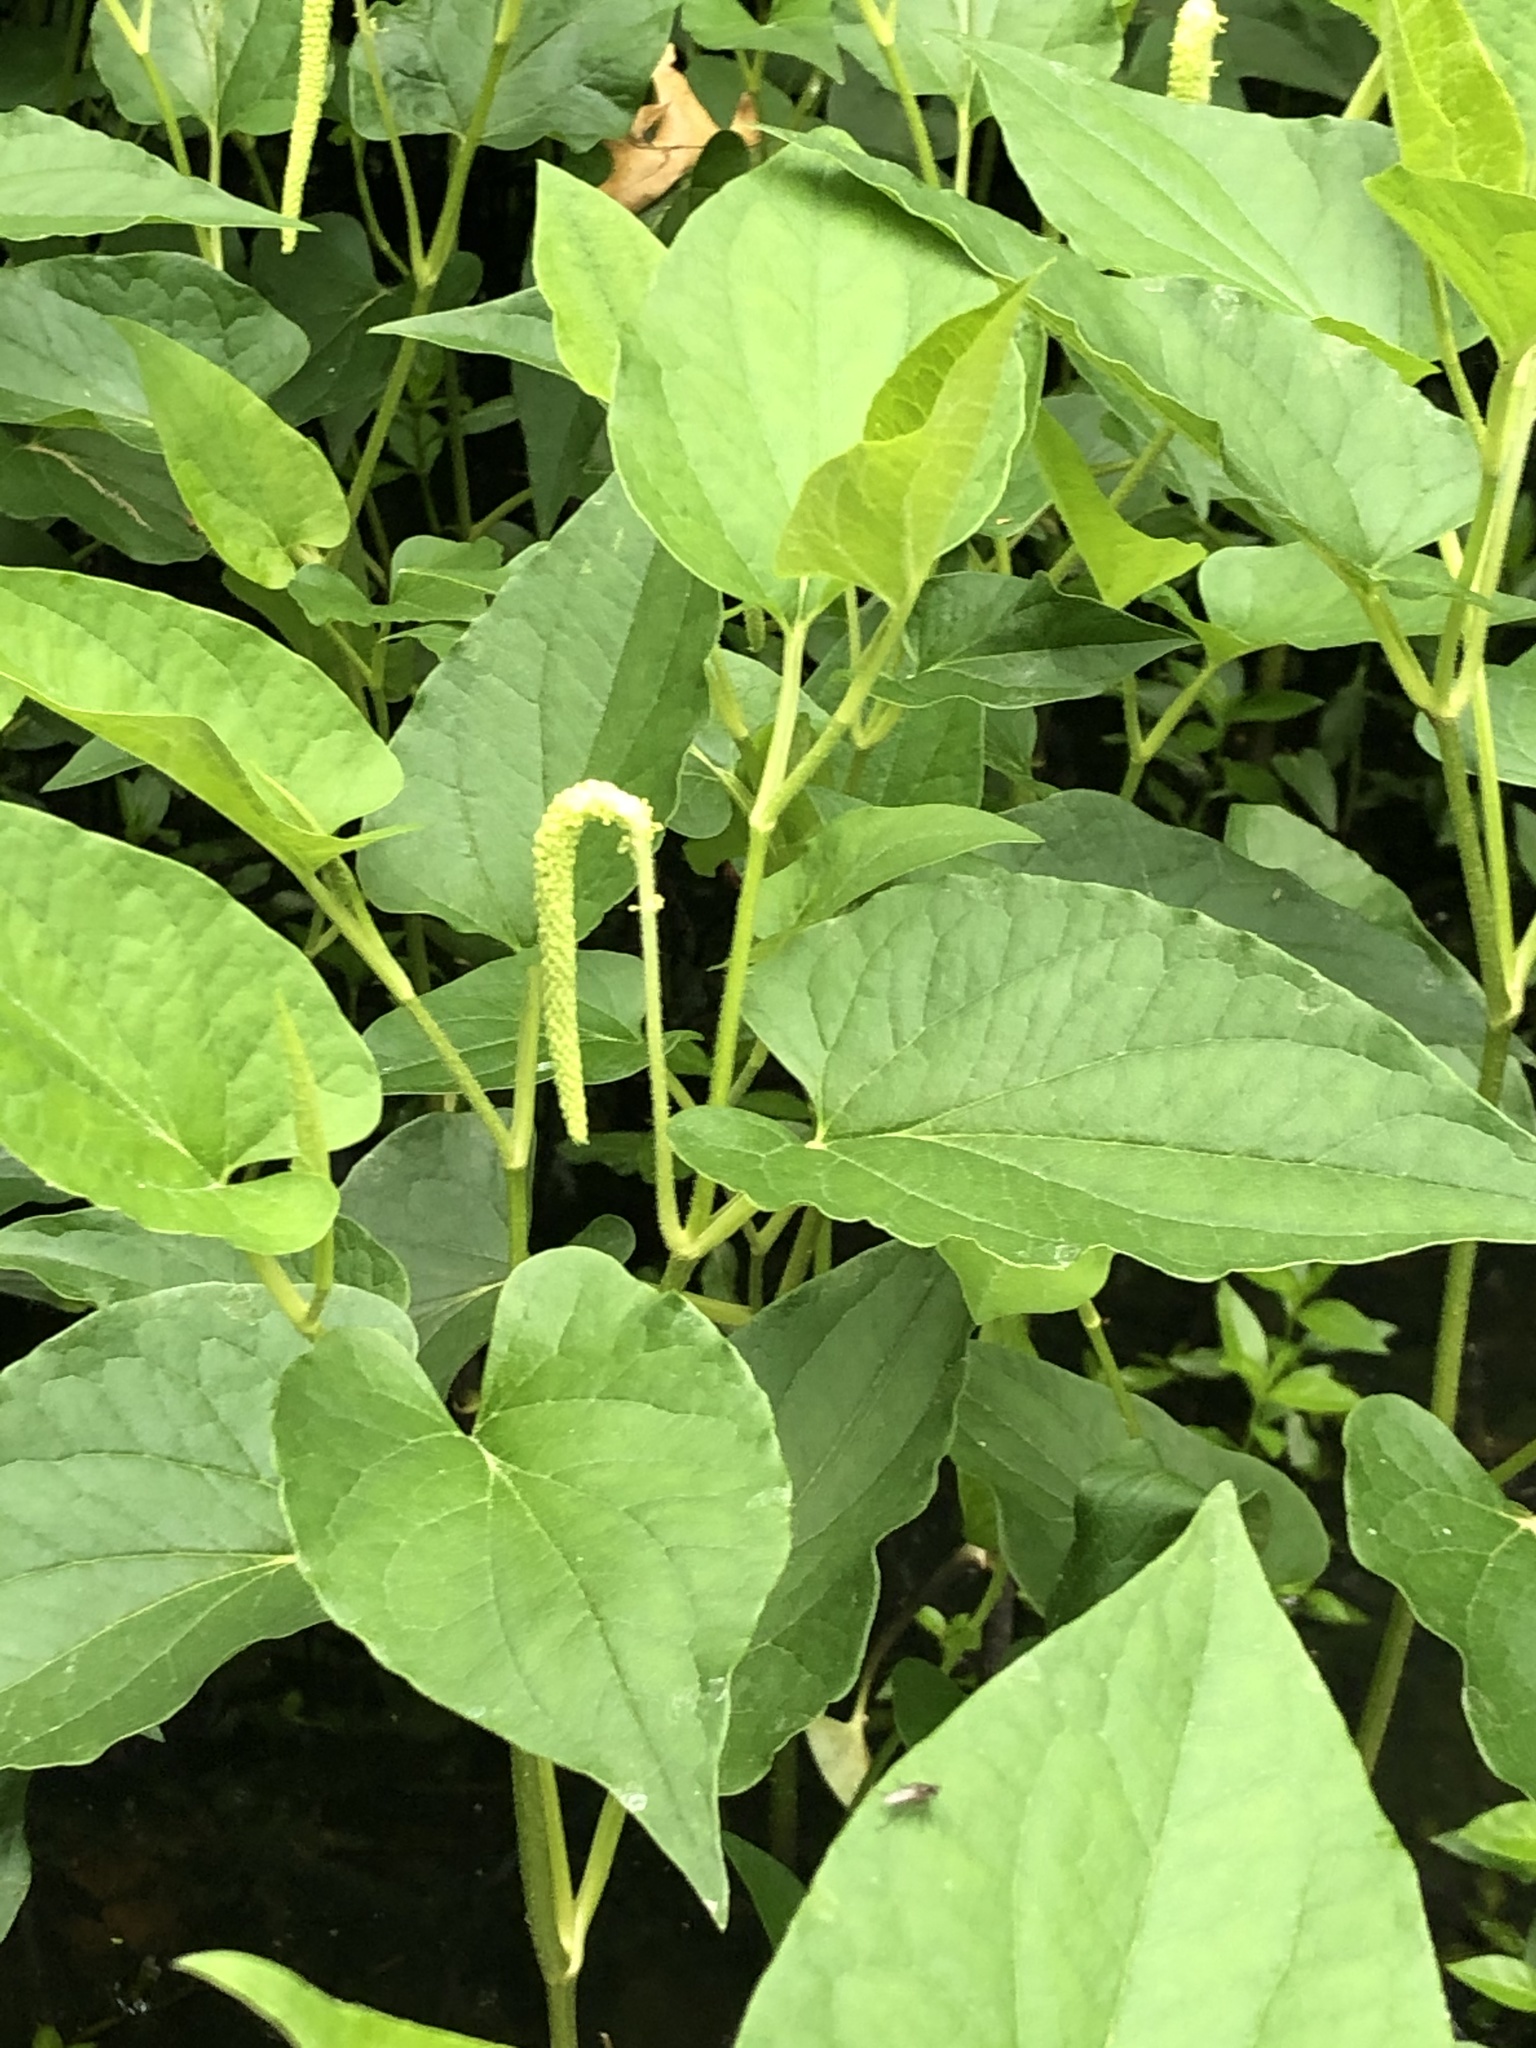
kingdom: Plantae
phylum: Tracheophyta
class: Magnoliopsida
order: Piperales
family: Saururaceae
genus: Saururus
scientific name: Saururus cernuus
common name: Lizard's-tail
